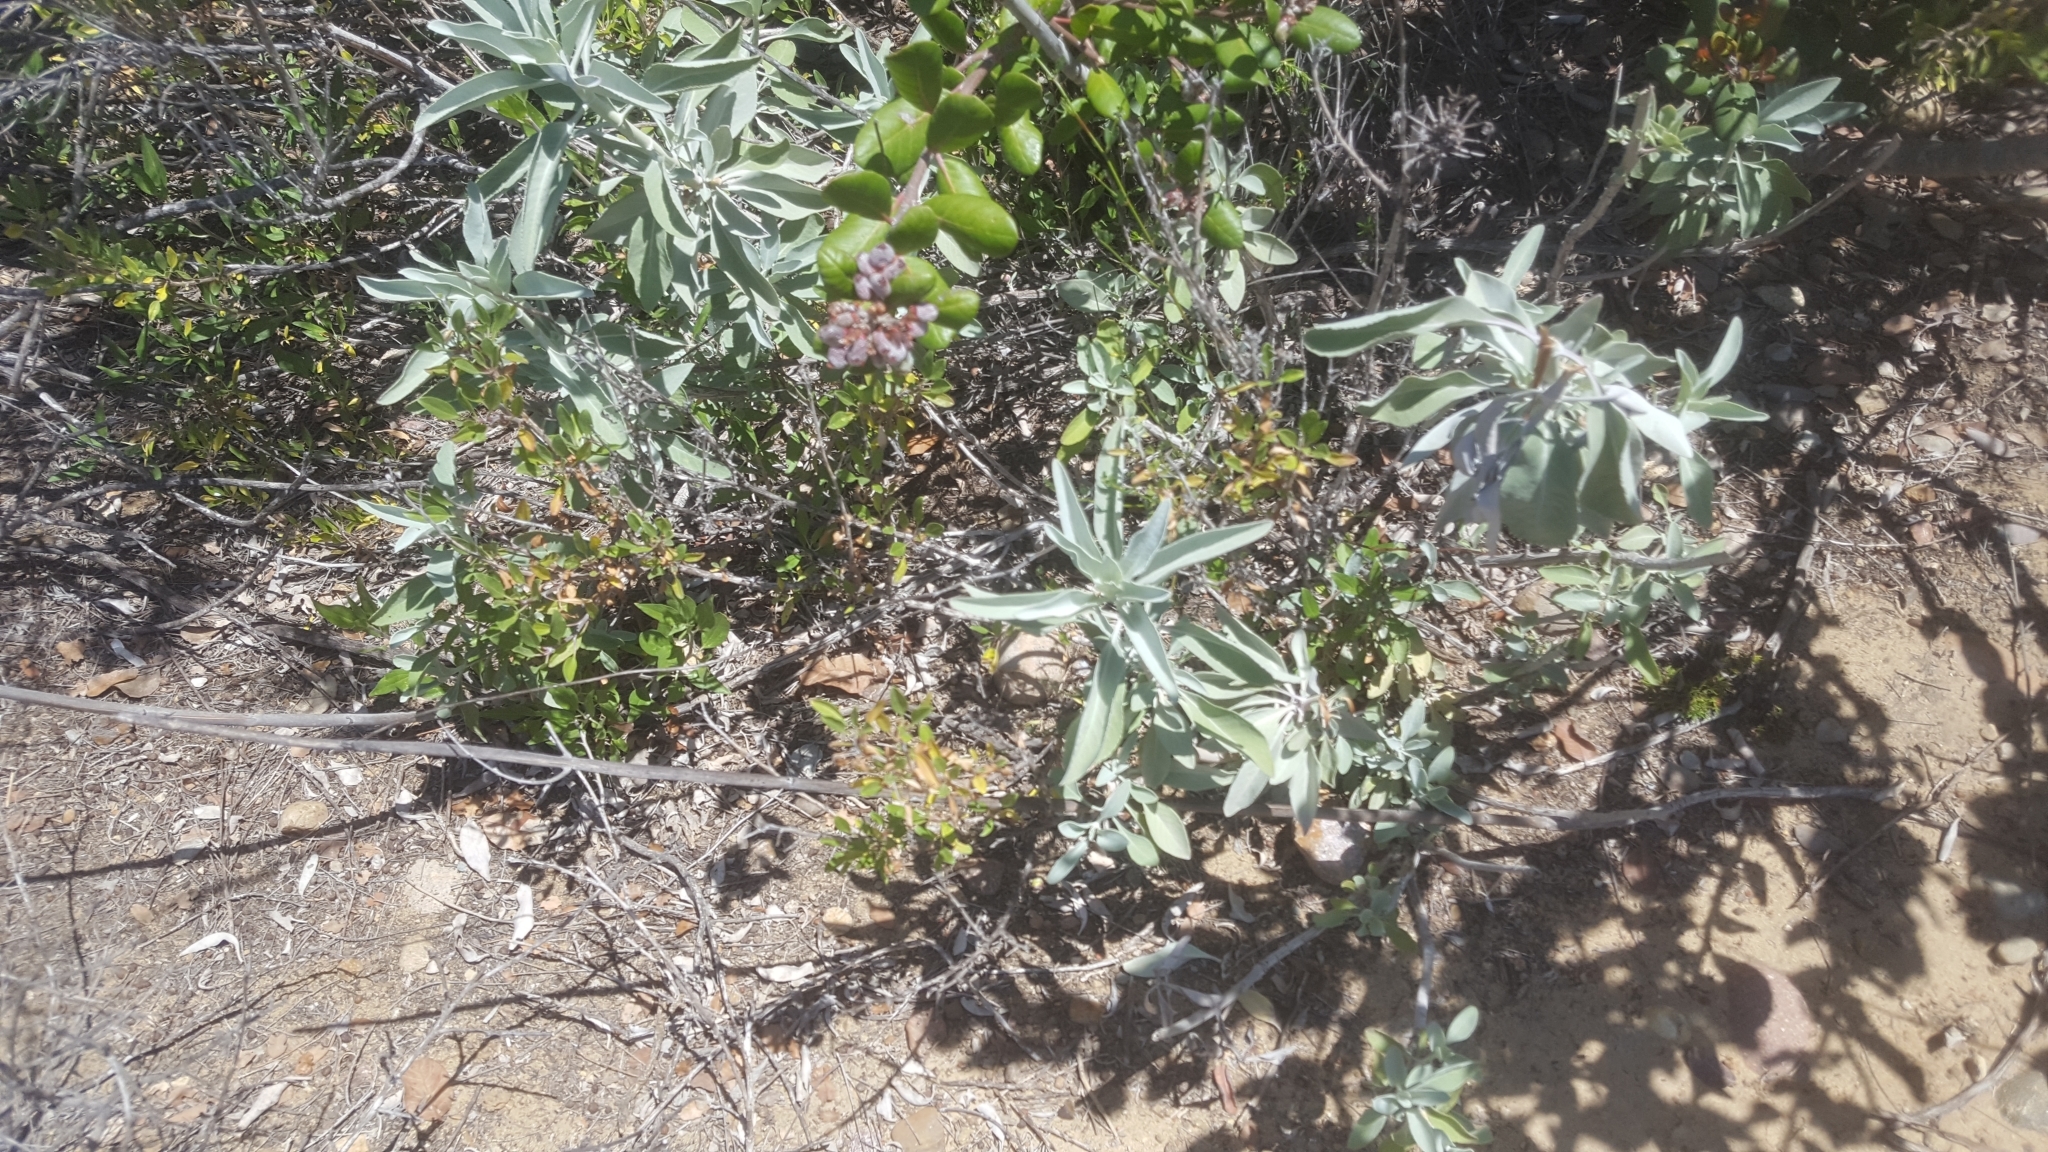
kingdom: Plantae
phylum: Tracheophyta
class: Magnoliopsida
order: Lamiales
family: Lamiaceae
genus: Salvia
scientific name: Salvia apiana
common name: White sage
